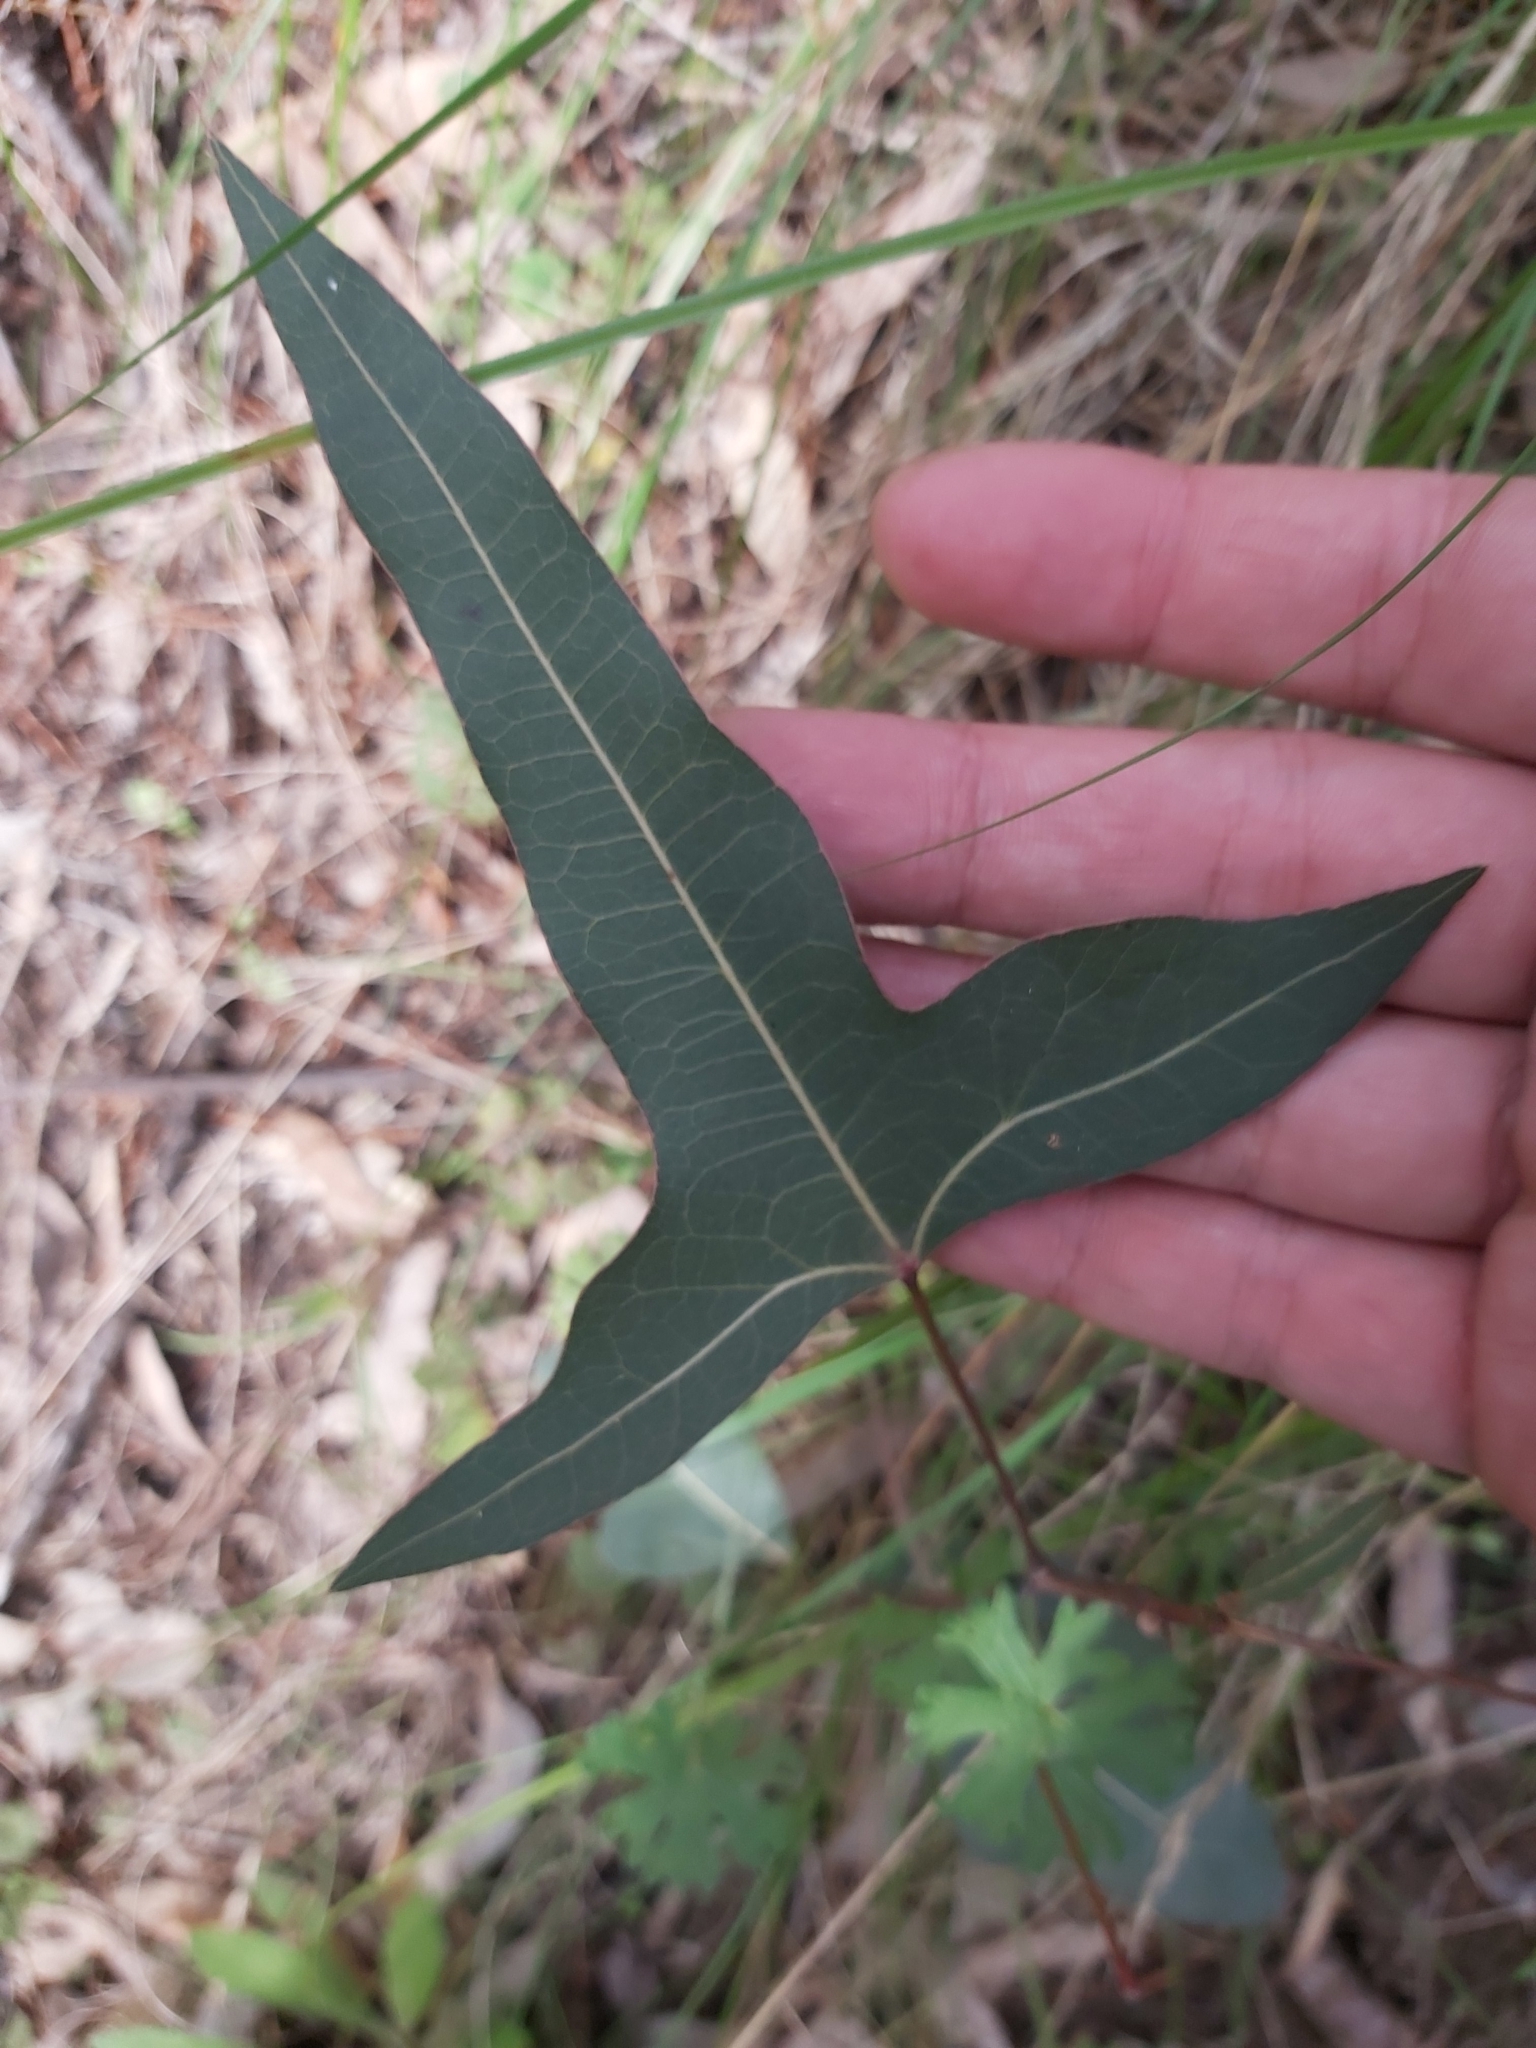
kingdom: Plantae
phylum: Tracheophyta
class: Magnoliopsida
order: Malvales
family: Malvaceae
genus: Brachychiton
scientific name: Brachychiton populneus
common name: Kurrajong
